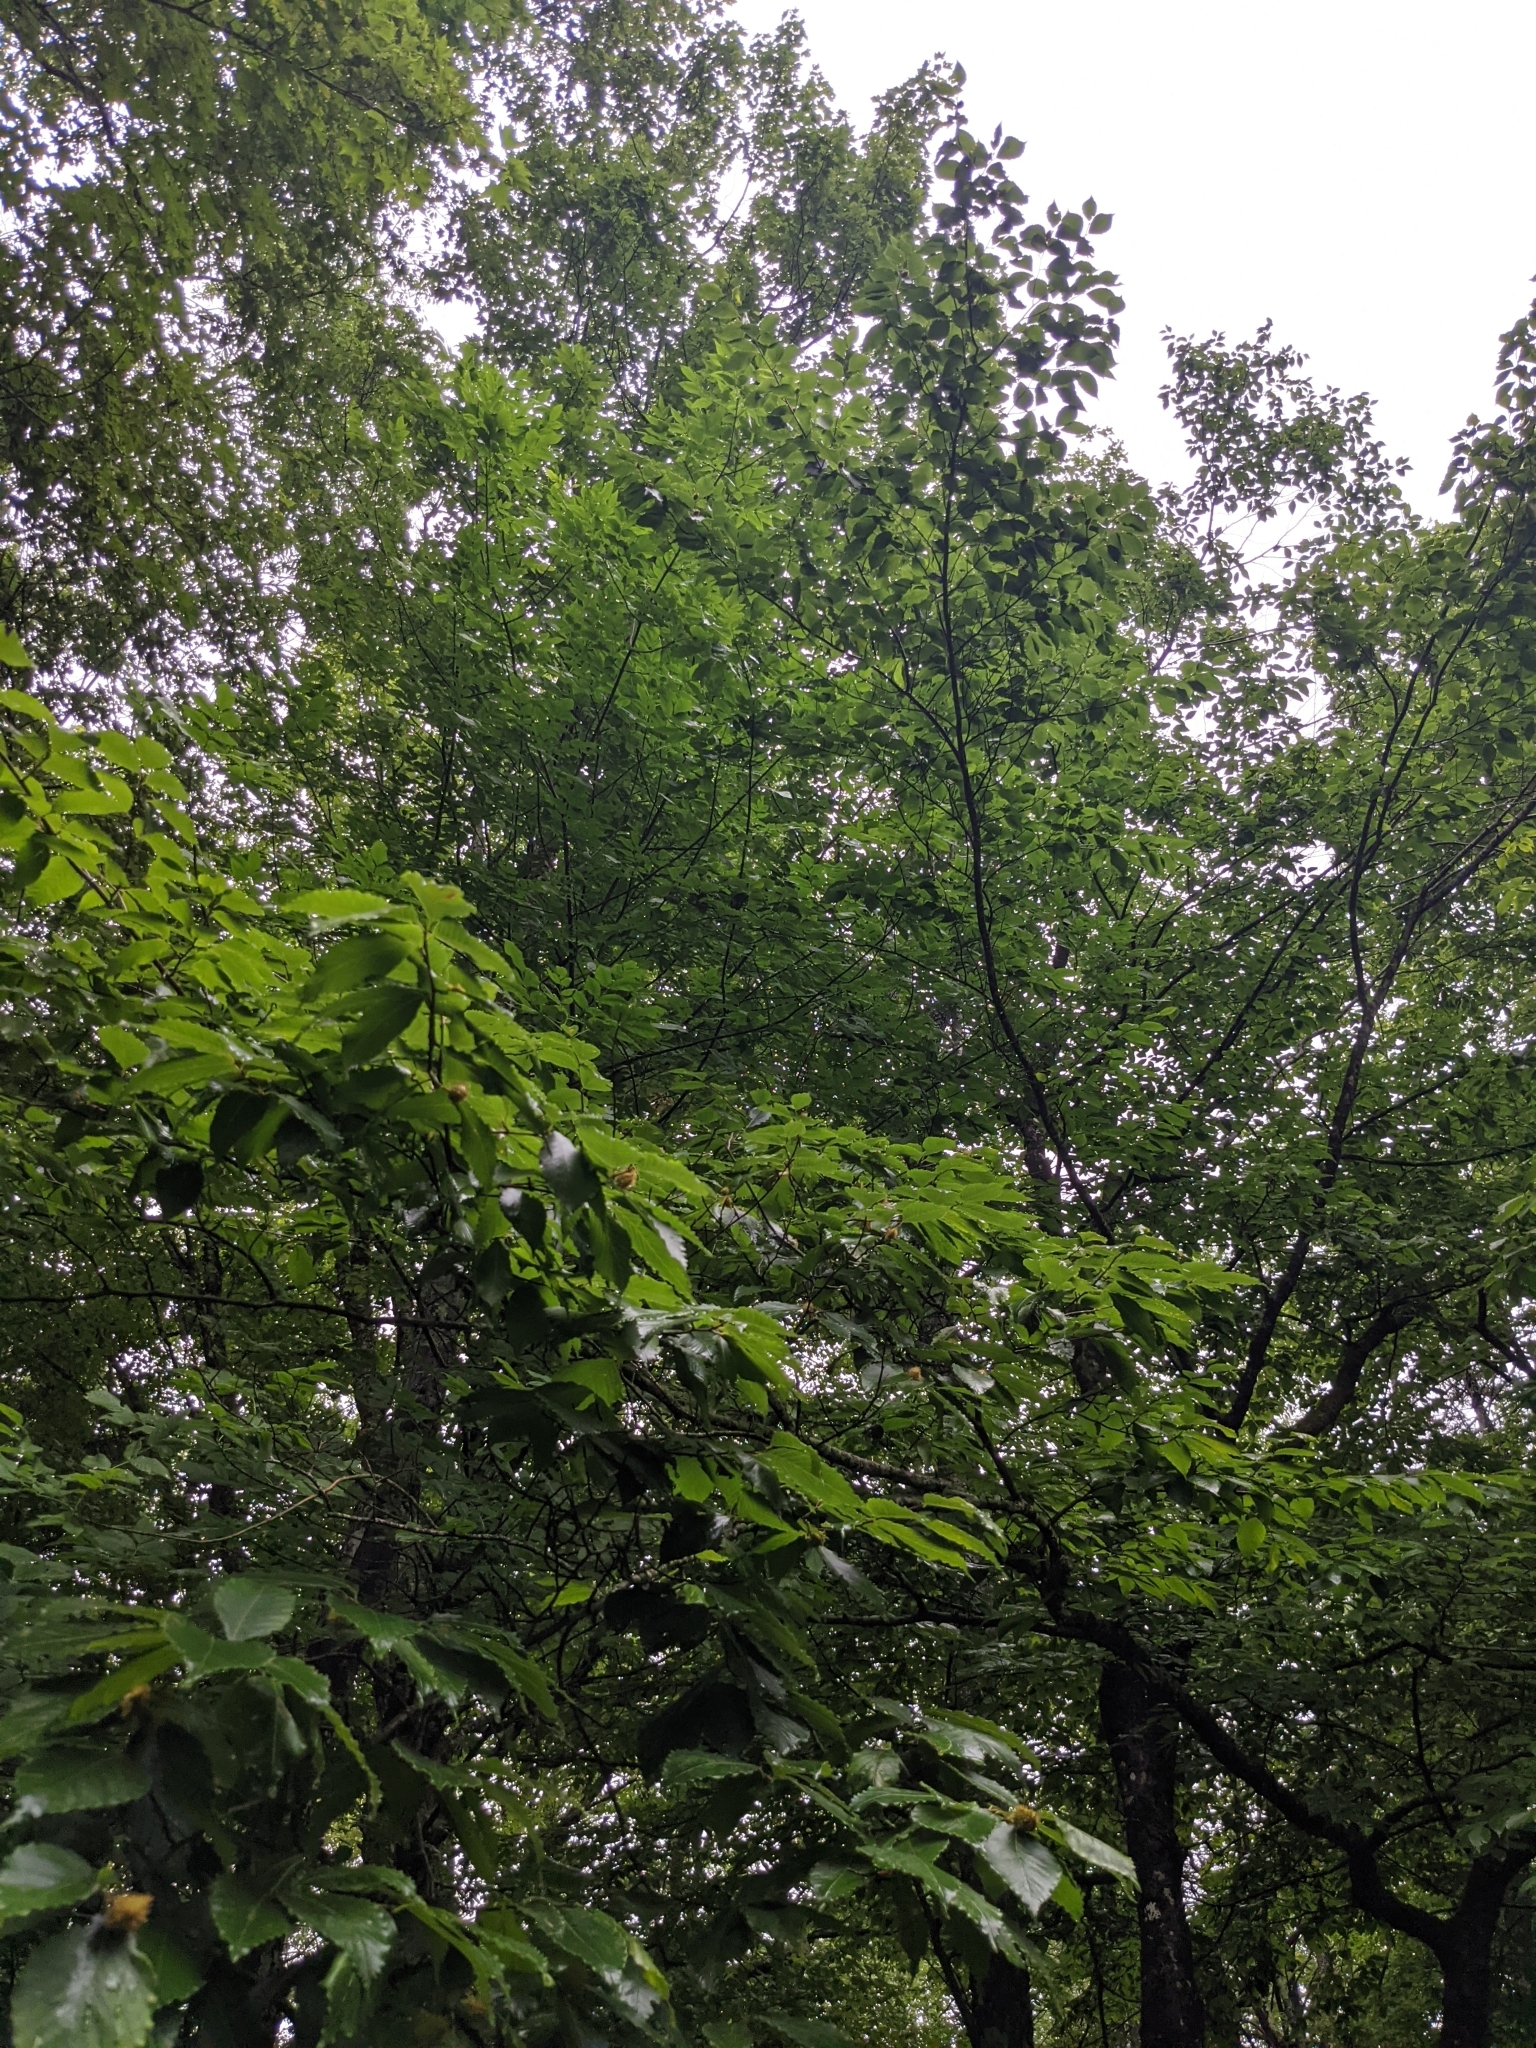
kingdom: Plantae
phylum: Tracheophyta
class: Magnoliopsida
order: Fagales
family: Fagaceae
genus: Fagus
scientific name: Fagus grandifolia
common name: American beech
